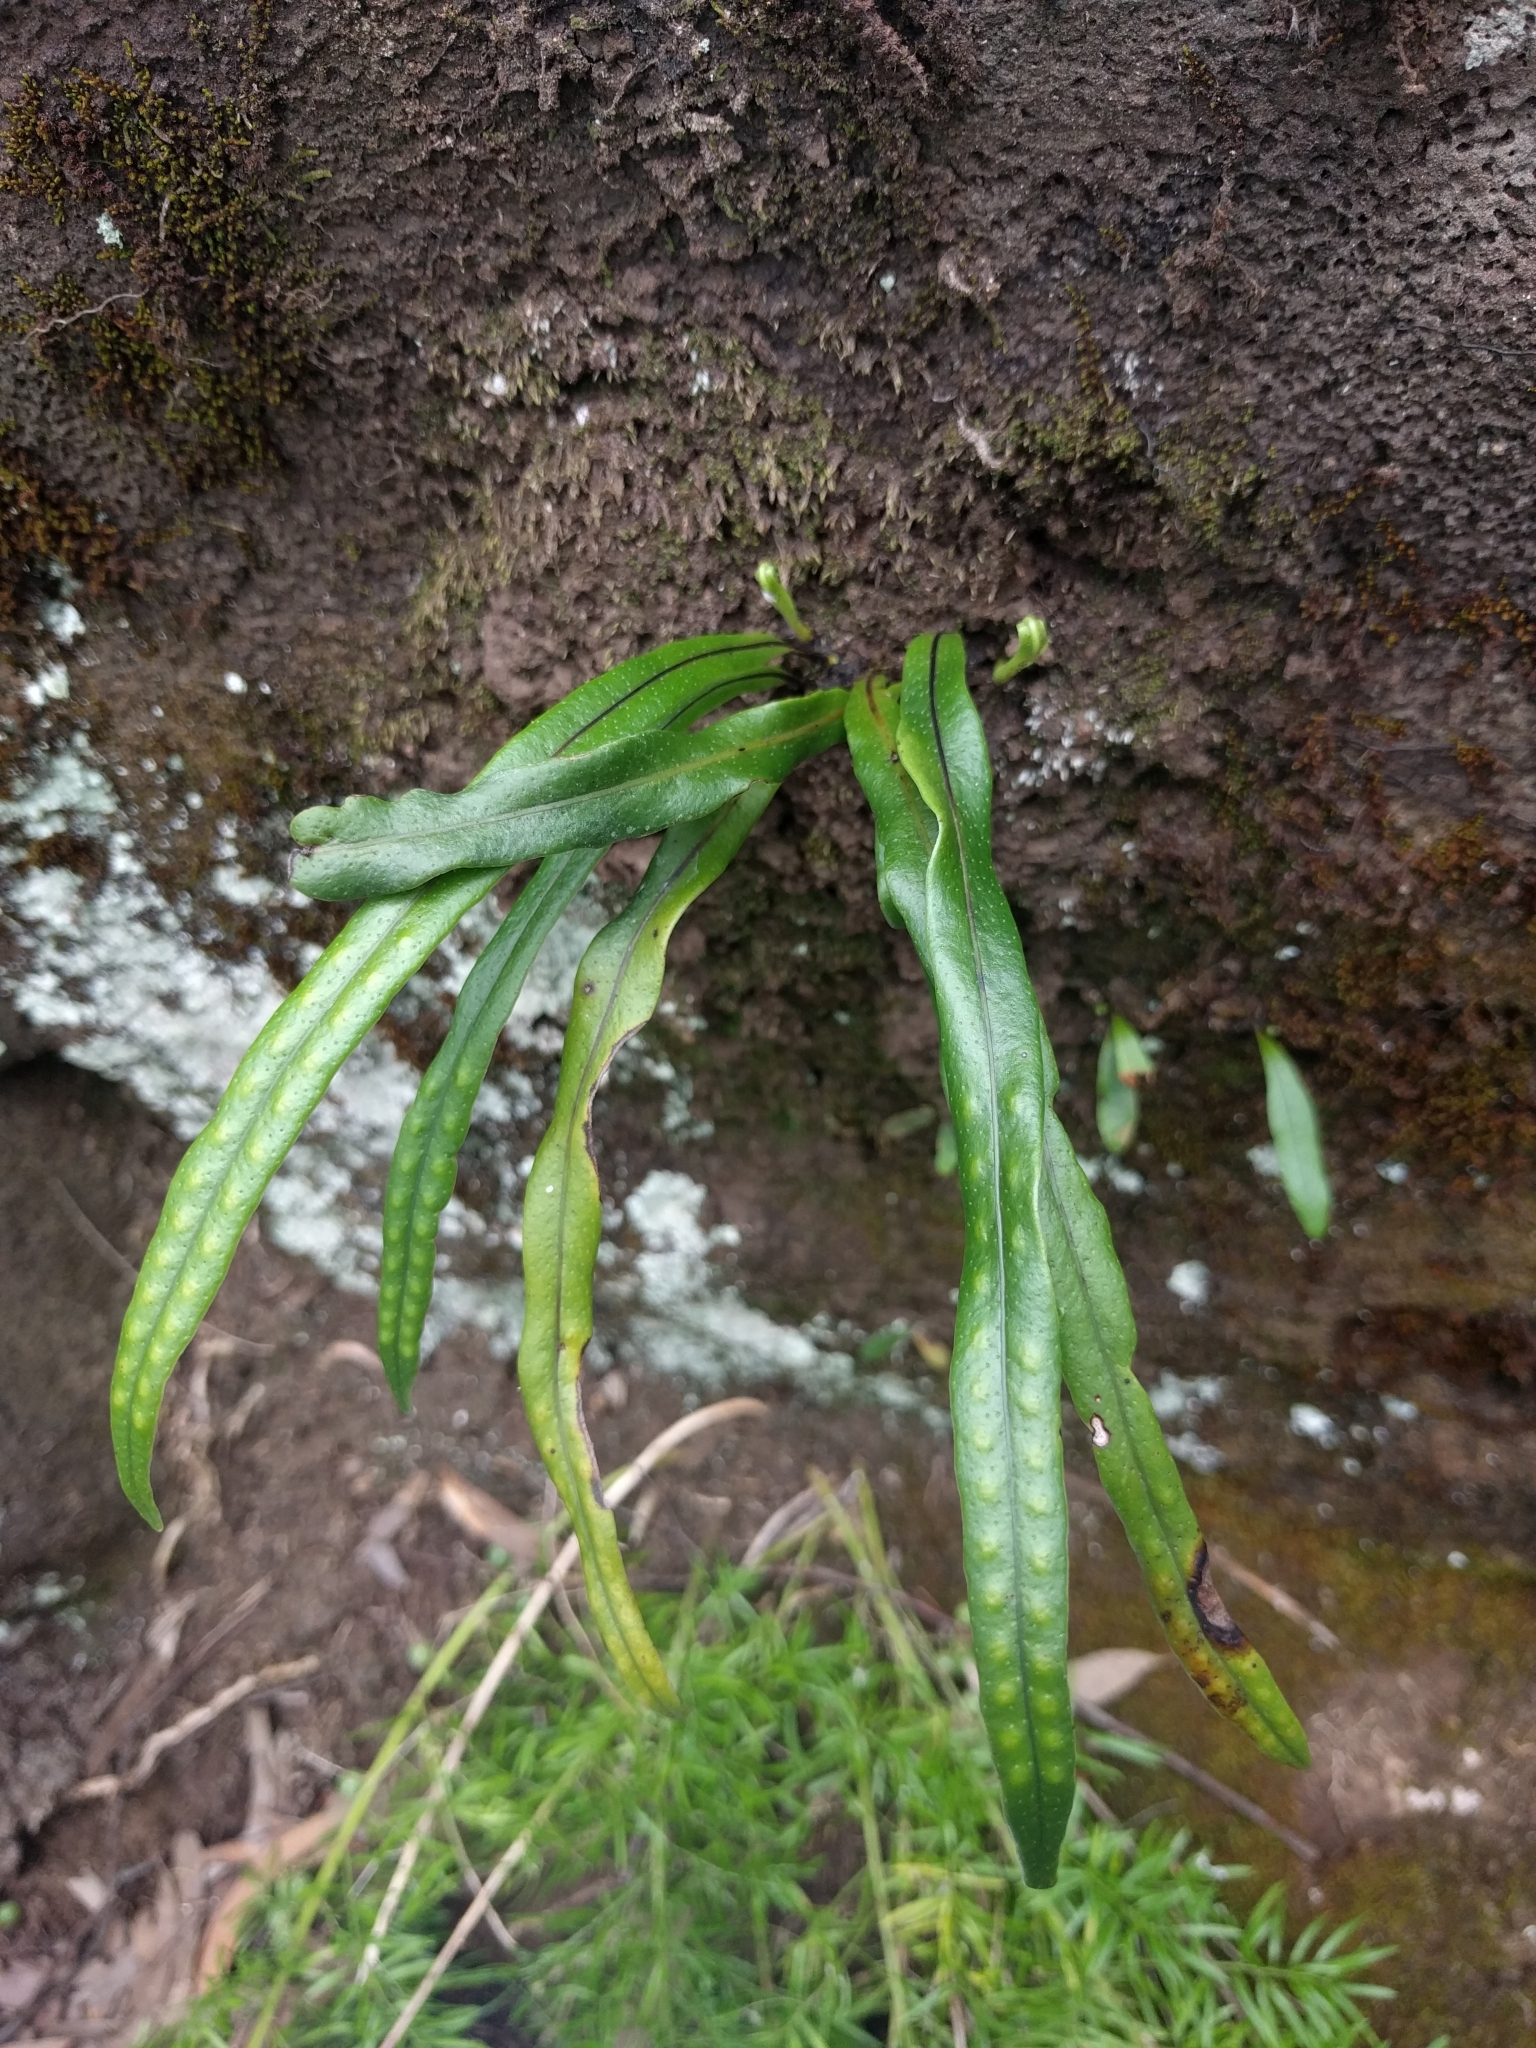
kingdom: Plantae
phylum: Tracheophyta
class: Polypodiopsida
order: Polypodiales
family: Polypodiaceae
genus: Lepisorus
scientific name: Lepisorus thunbergianus
